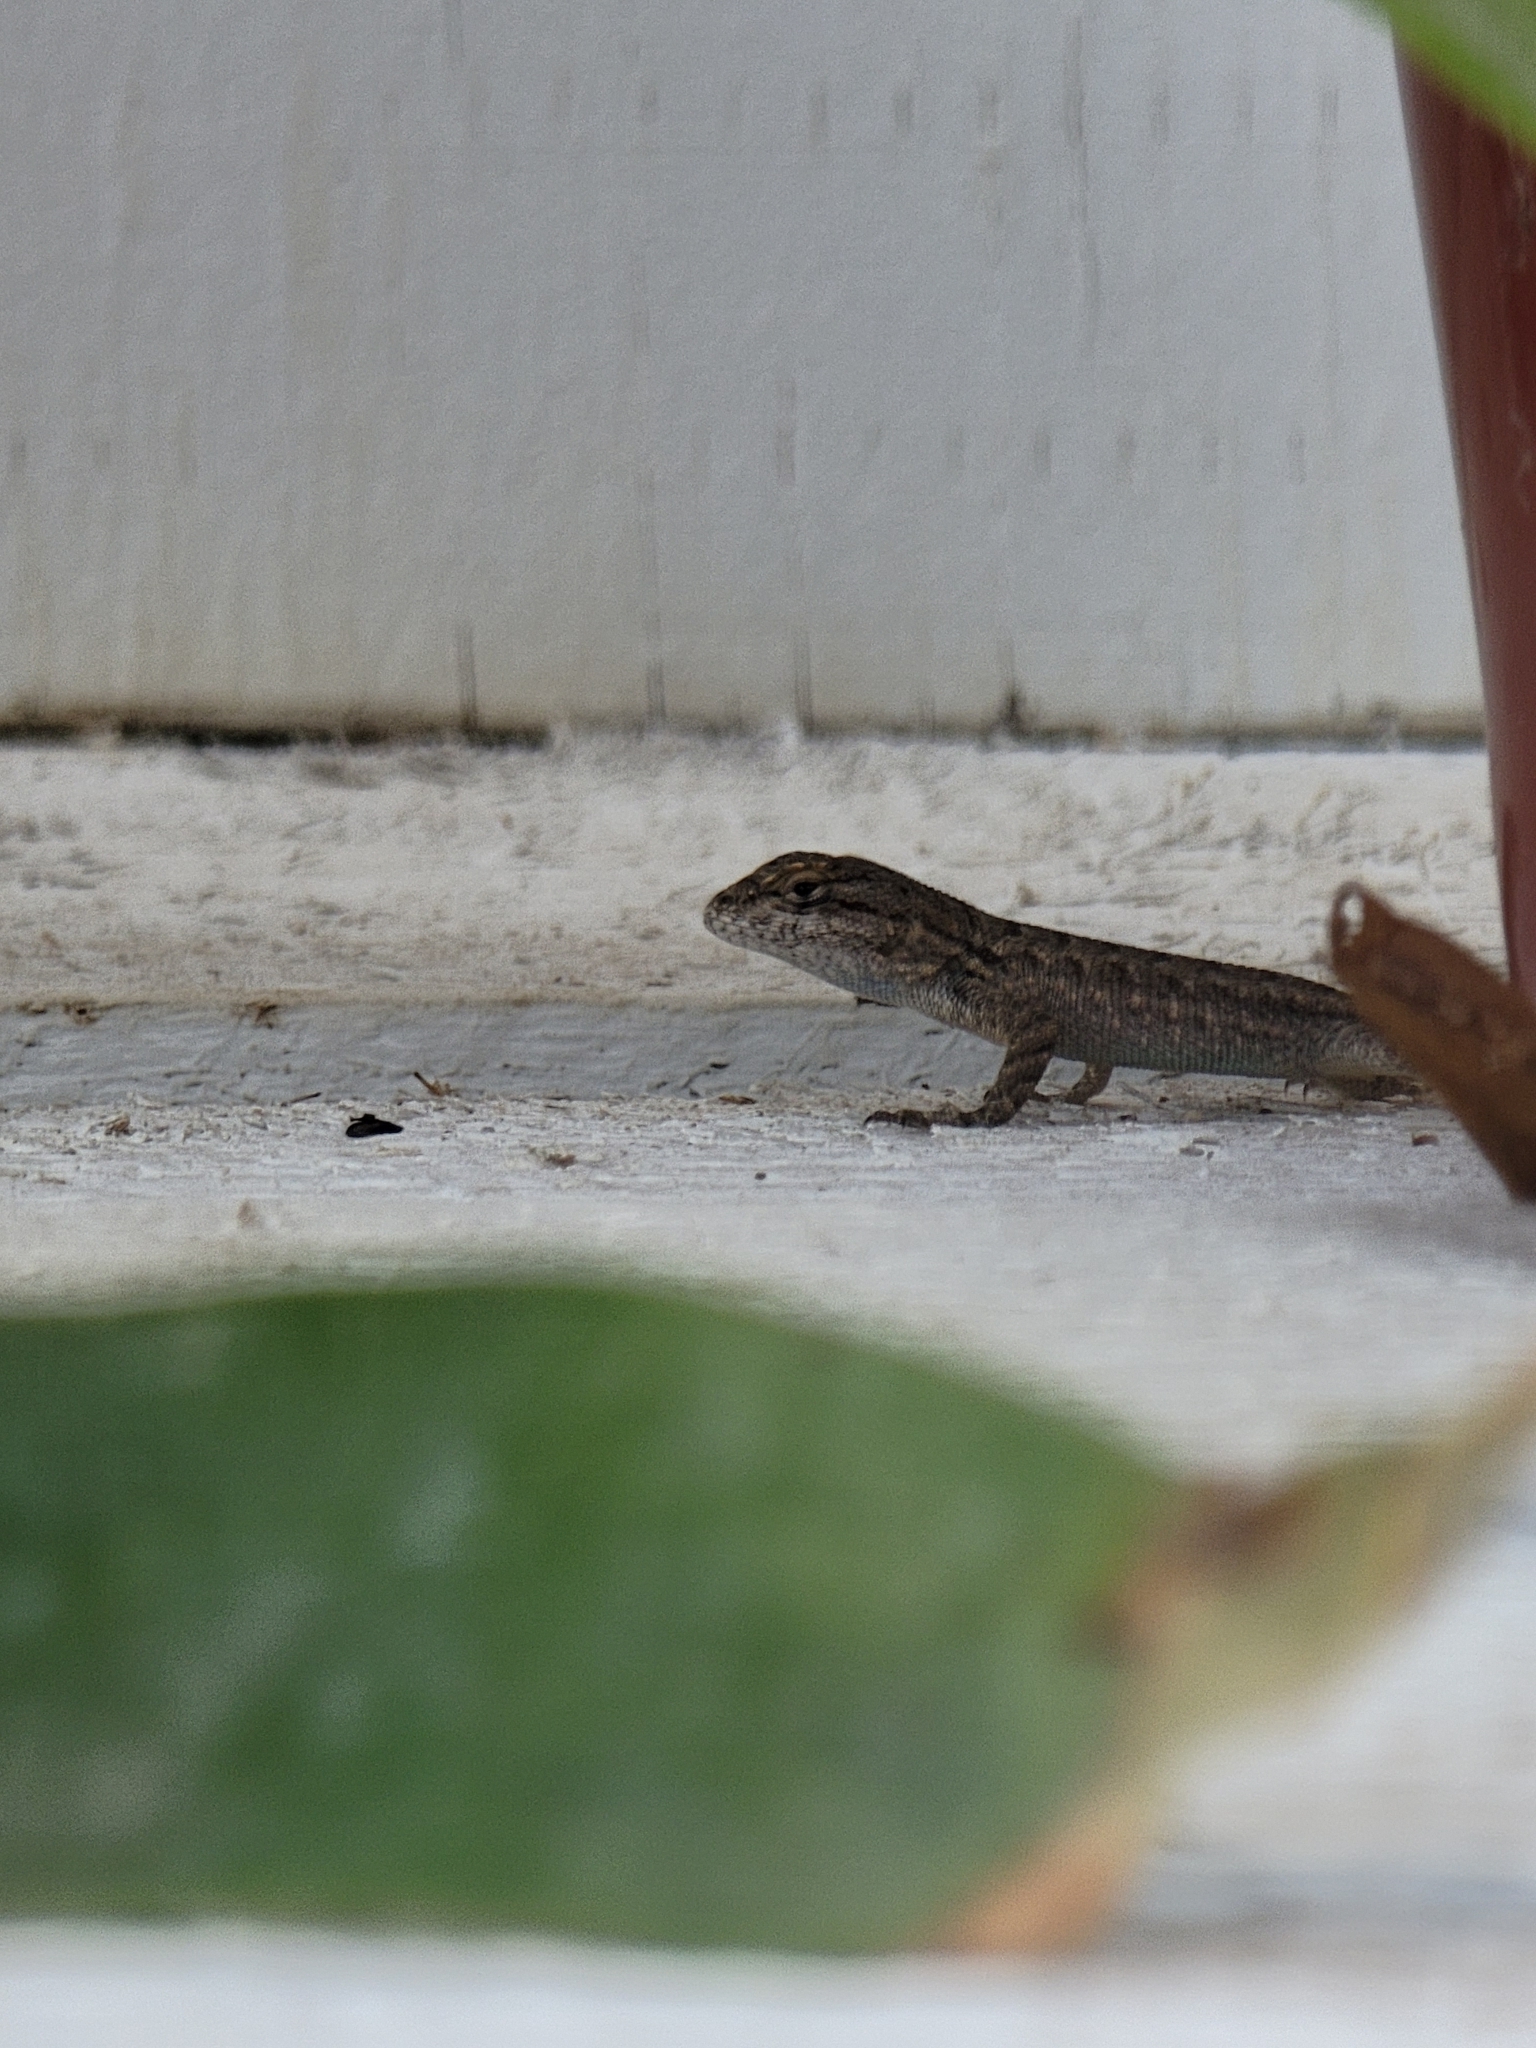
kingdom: Animalia
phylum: Chordata
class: Squamata
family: Phrynosomatidae
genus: Sceloporus
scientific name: Sceloporus occidentalis
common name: Western fence lizard
